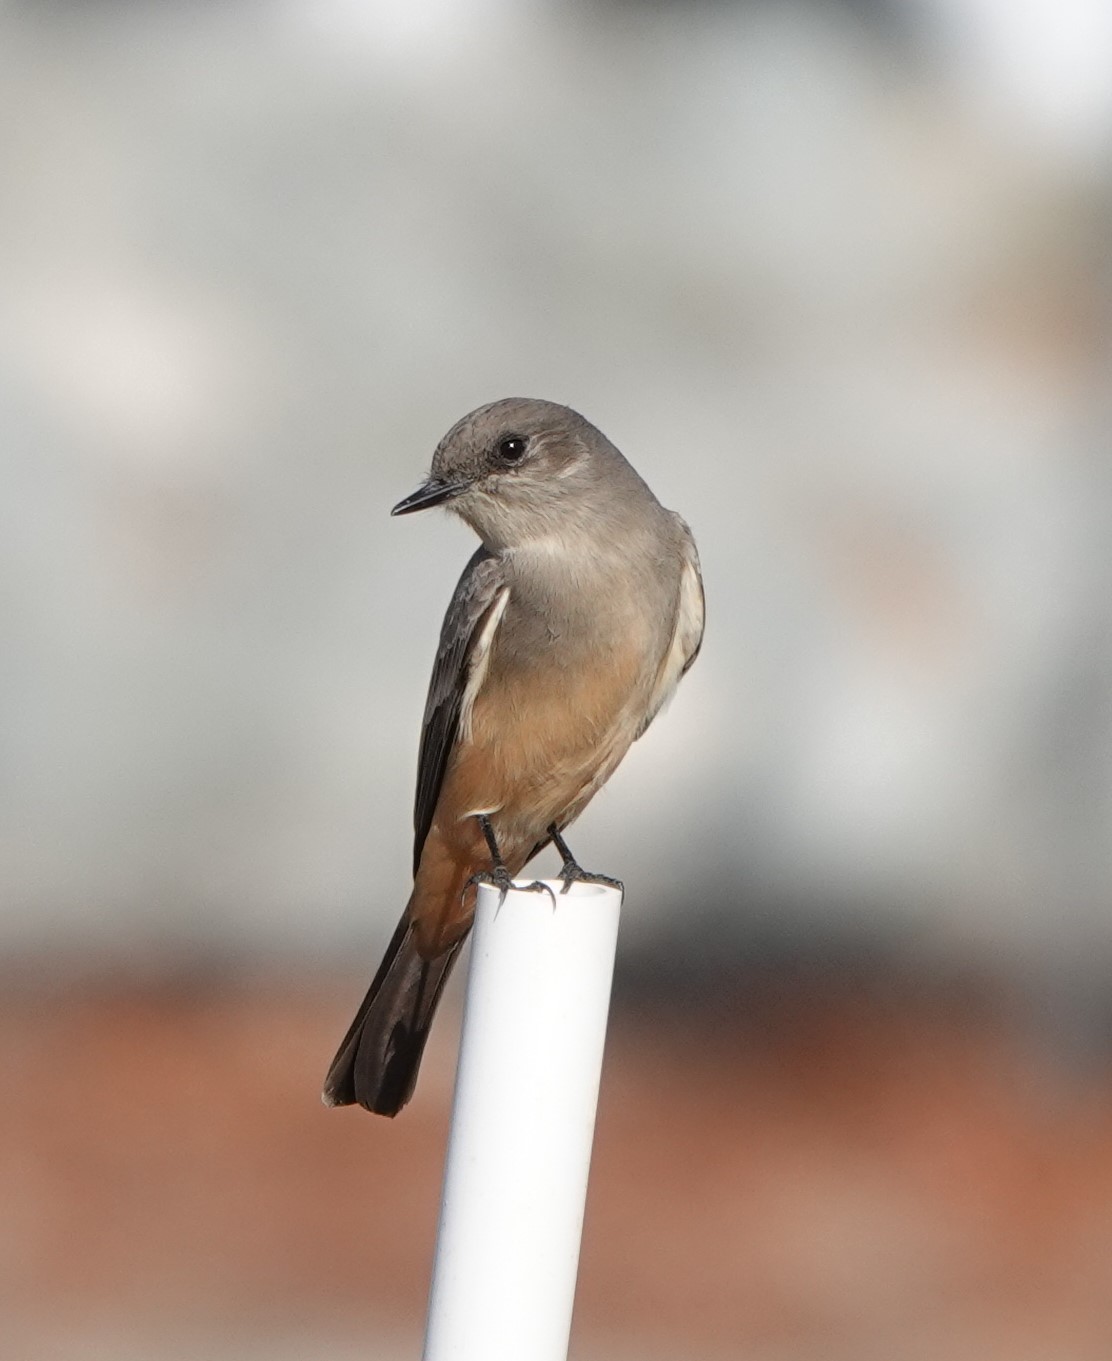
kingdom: Animalia
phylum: Chordata
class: Aves
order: Passeriformes
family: Tyrannidae
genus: Sayornis
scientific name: Sayornis saya
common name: Say's phoebe
